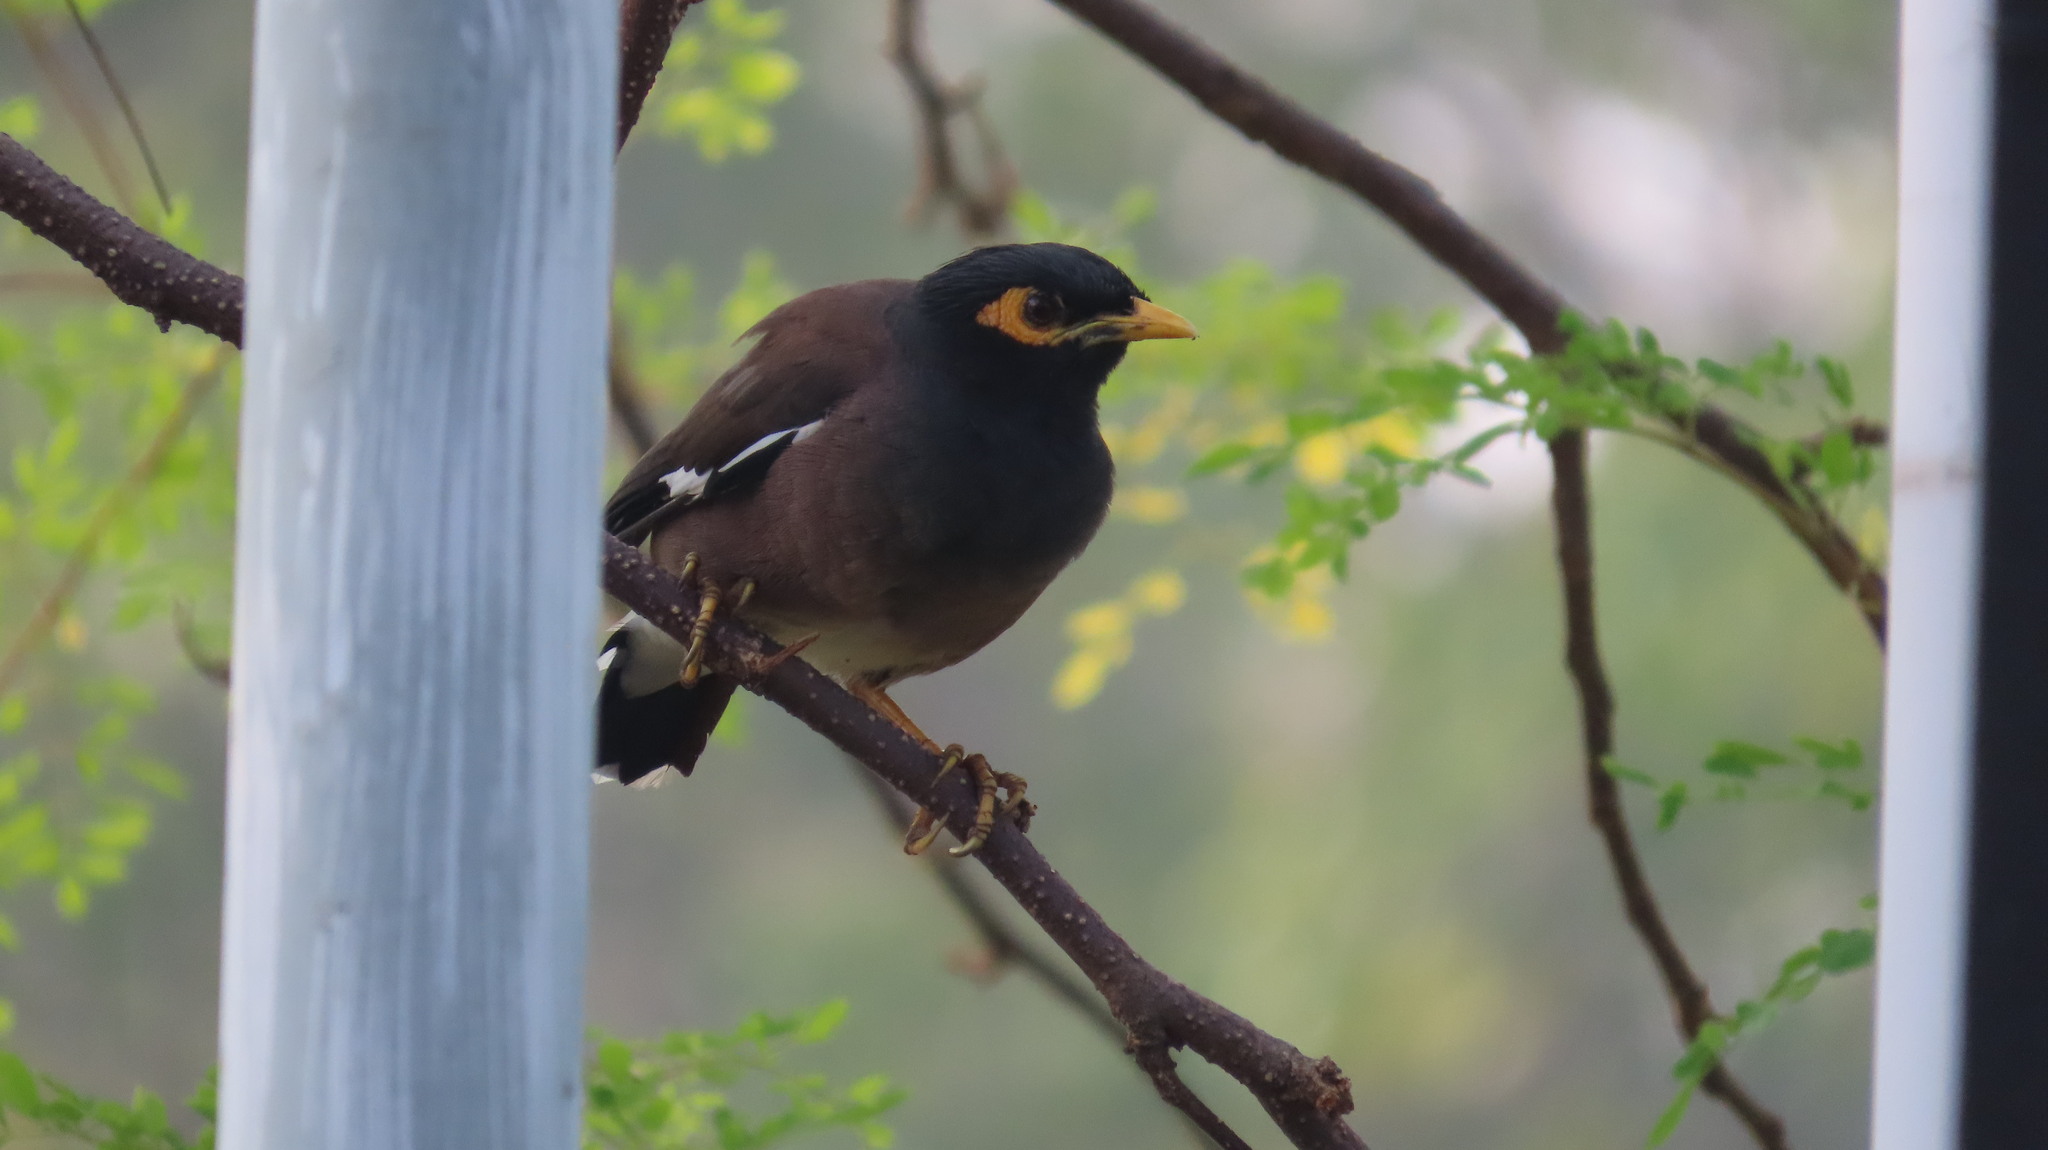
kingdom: Animalia
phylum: Chordata
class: Aves
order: Passeriformes
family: Sturnidae
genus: Acridotheres
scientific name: Acridotheres tristis
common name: Common myna
